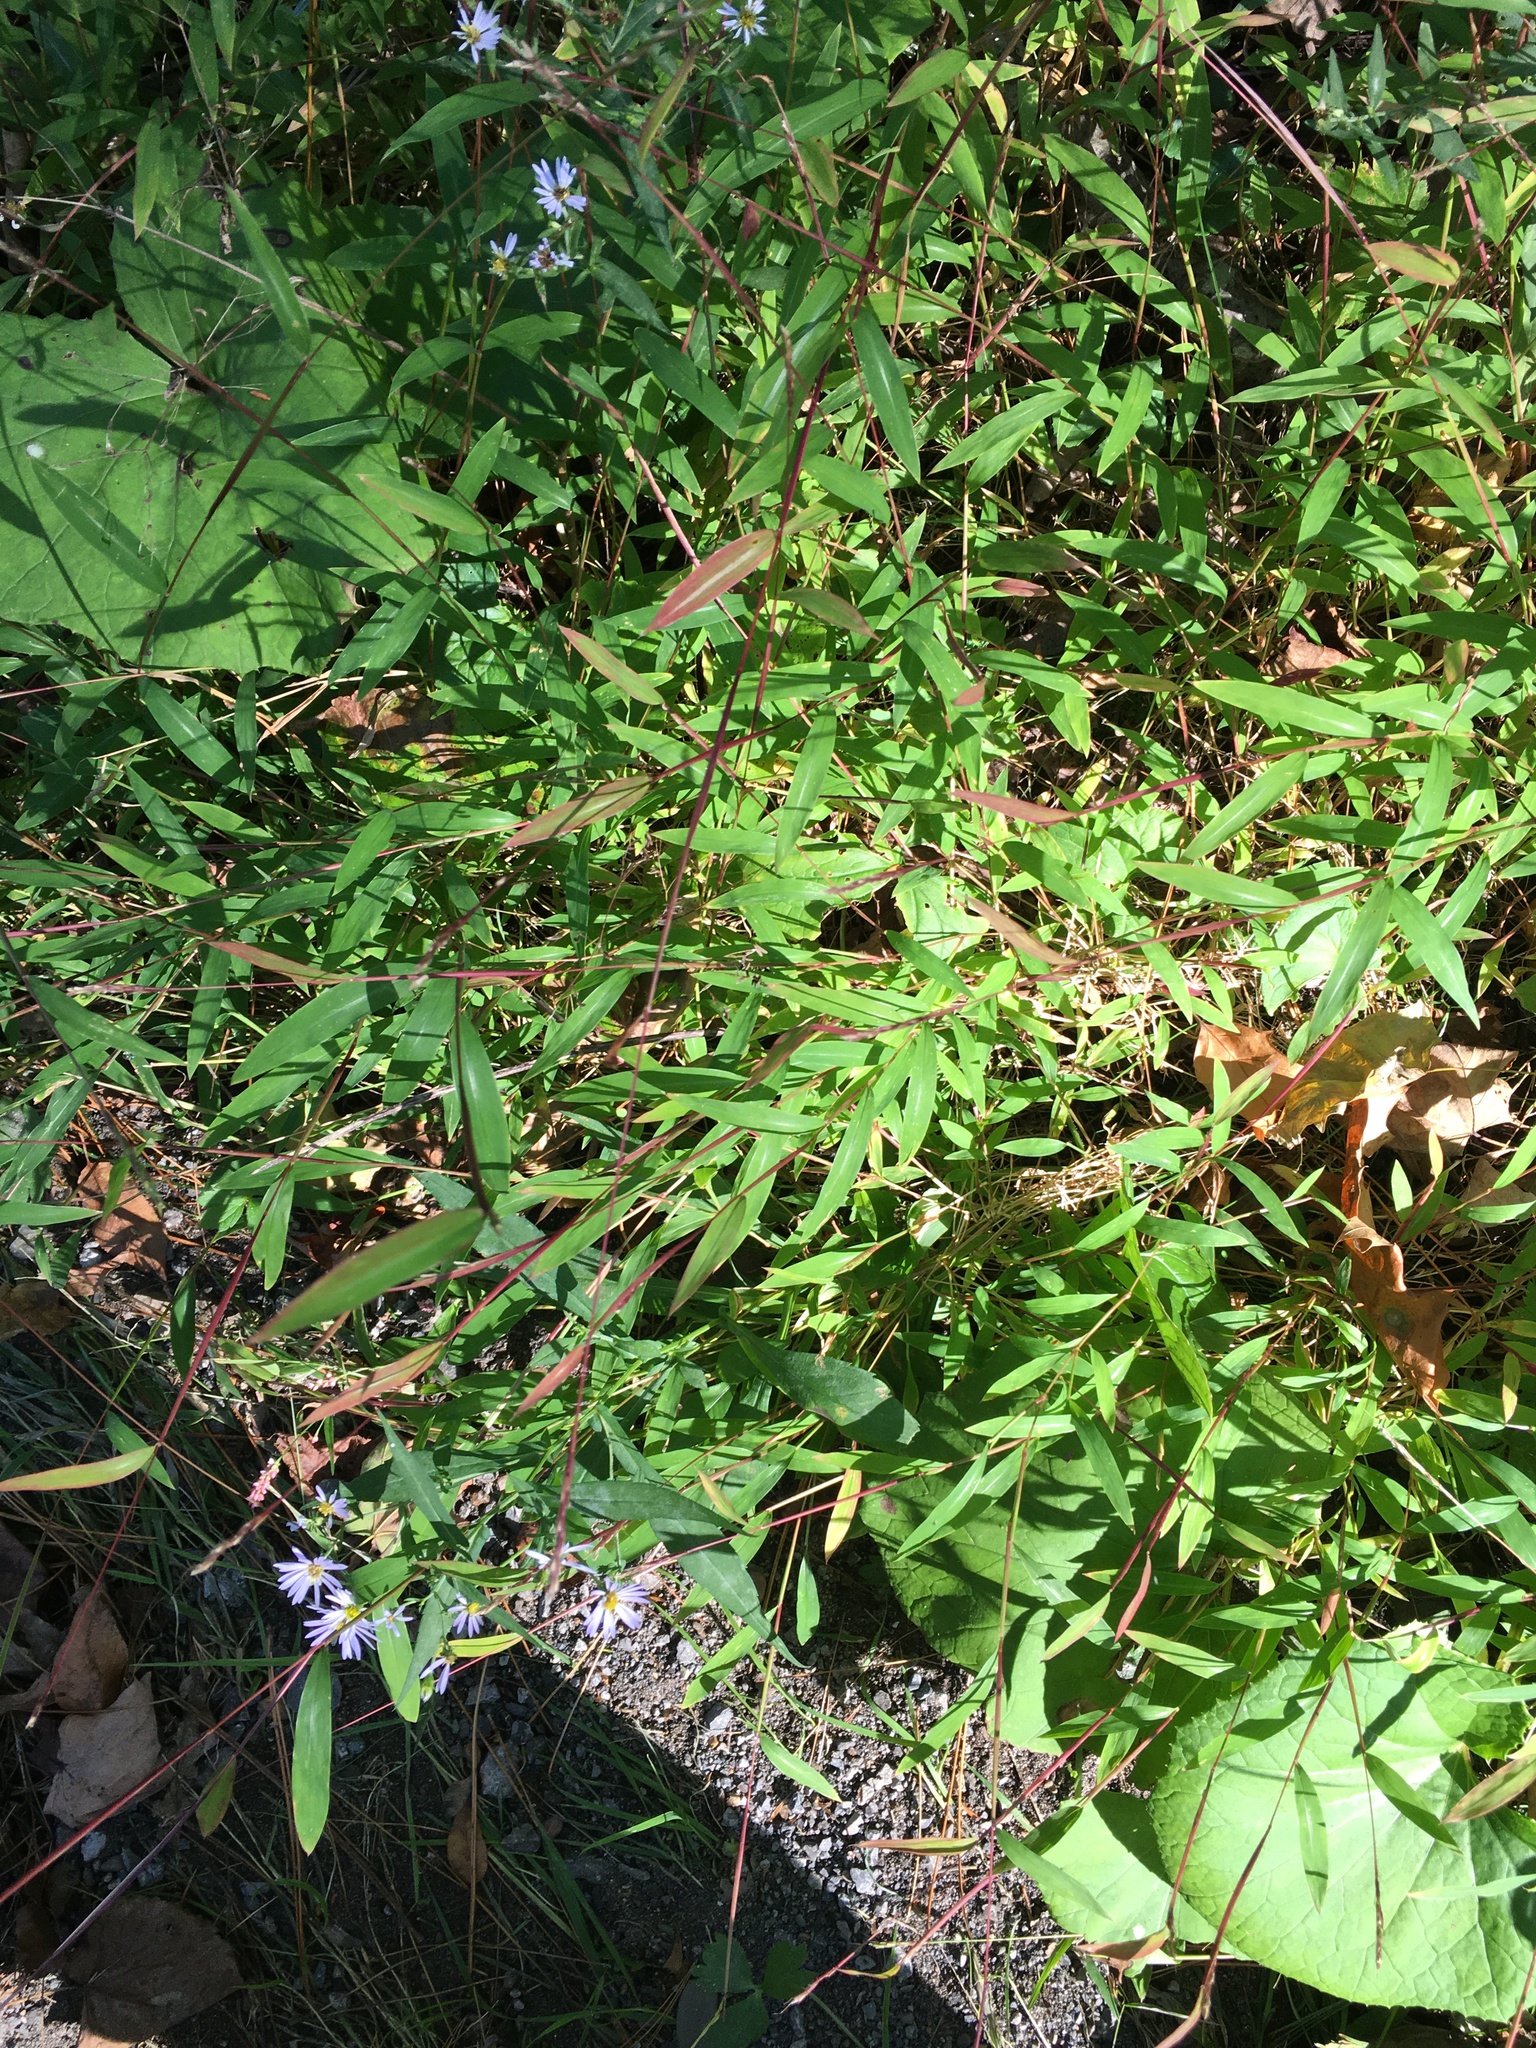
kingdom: Plantae
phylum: Tracheophyta
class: Liliopsida
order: Poales
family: Poaceae
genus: Microstegium
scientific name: Microstegium vimineum
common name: Japanese stiltgrass
